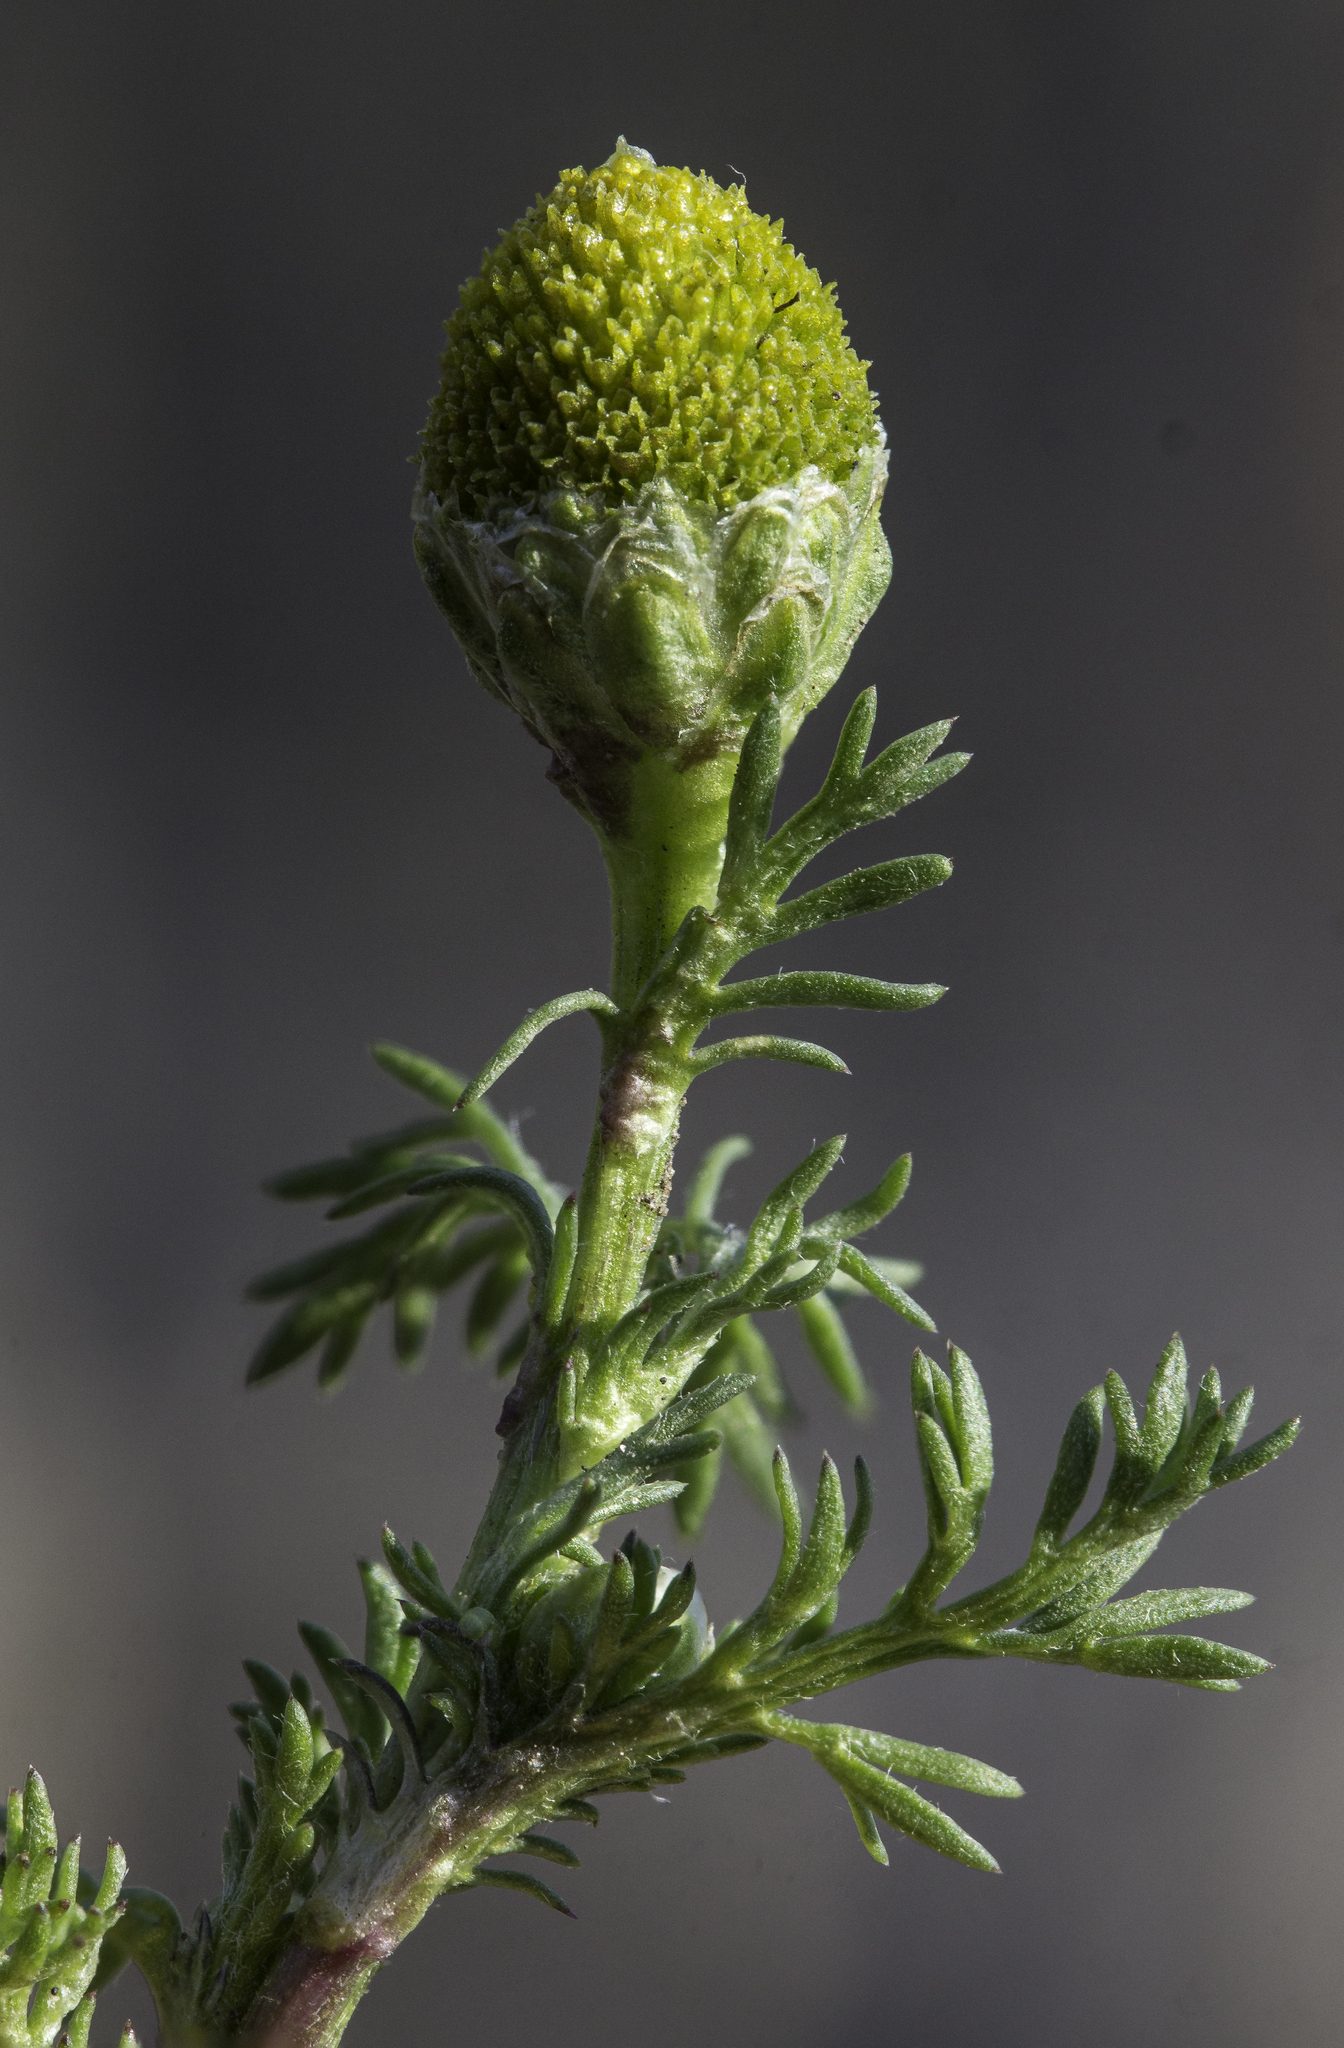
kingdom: Plantae
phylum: Tracheophyta
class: Magnoliopsida
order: Asterales
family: Asteraceae
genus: Matricaria
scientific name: Matricaria discoidea
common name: Disc mayweed
